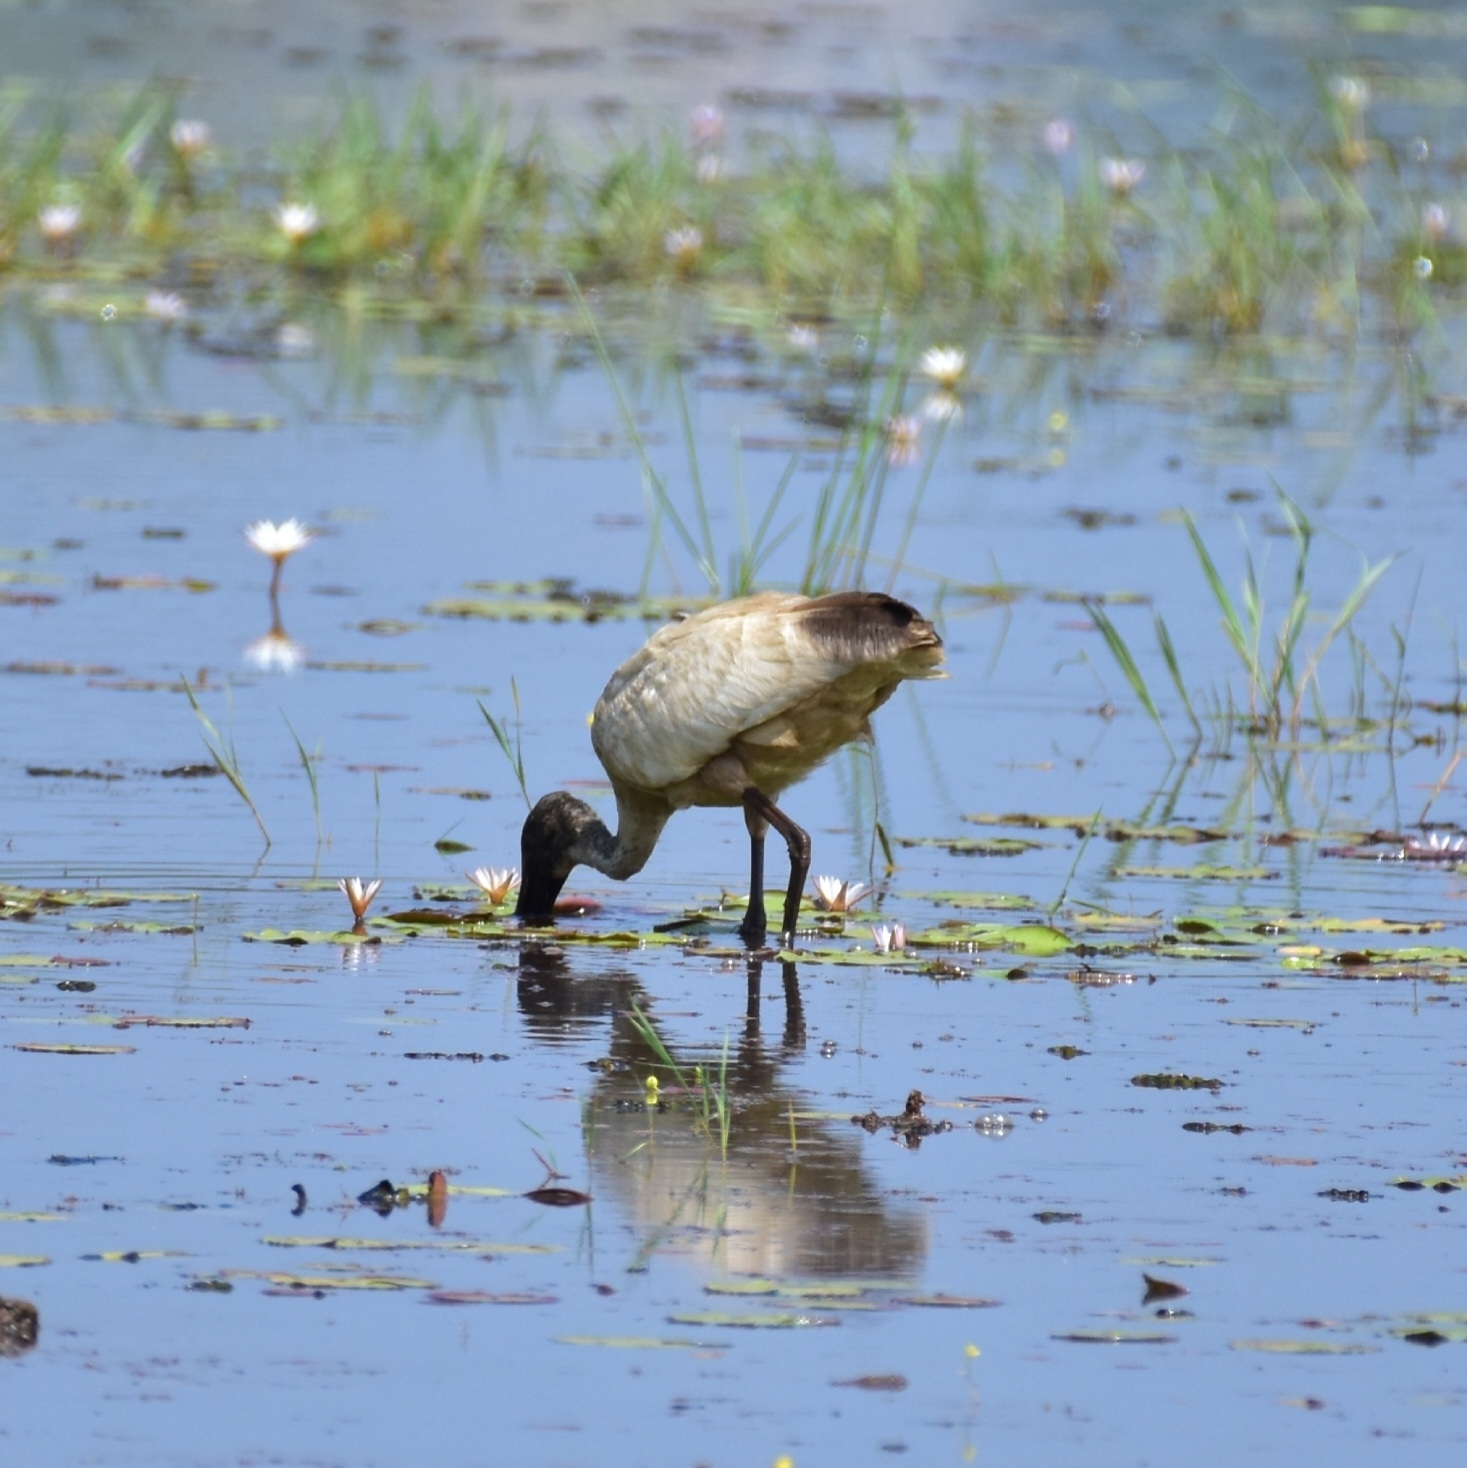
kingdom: Animalia
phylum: Chordata
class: Aves
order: Pelecaniformes
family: Threskiornithidae
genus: Threskiornis
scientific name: Threskiornis melanocephalus
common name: Black-headed ibis
